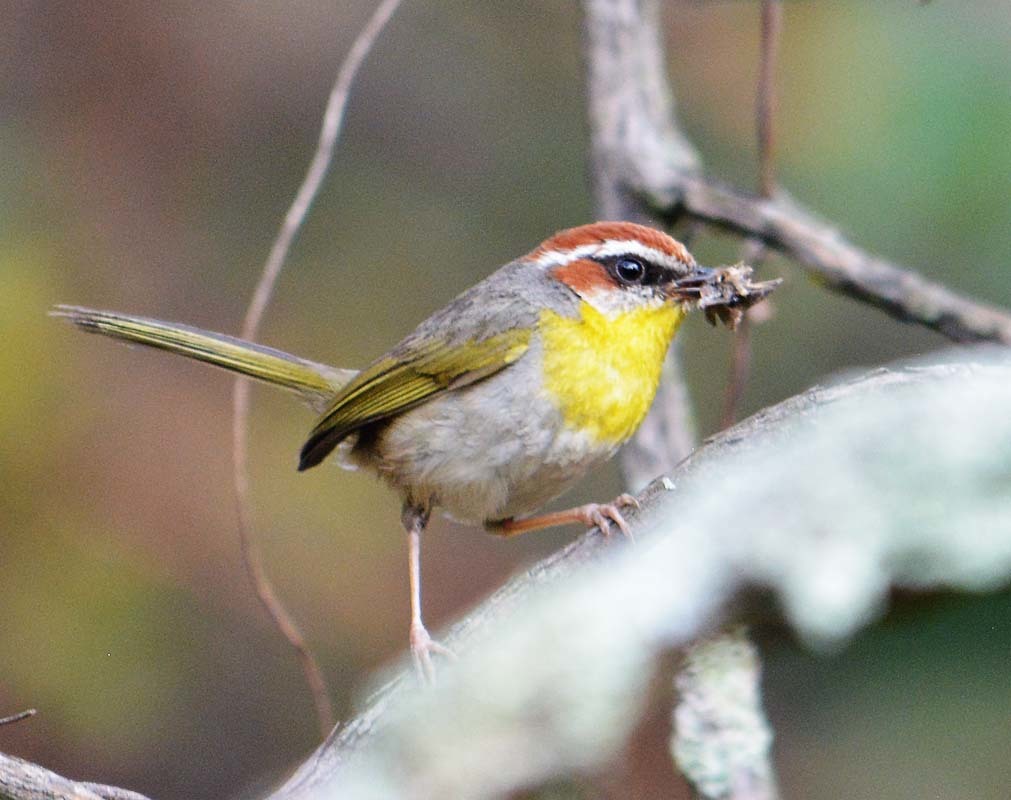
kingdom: Animalia
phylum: Chordata
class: Aves
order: Passeriformes
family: Parulidae
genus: Basileuterus
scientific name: Basileuterus rufifrons
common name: Rufous-capped warbler
